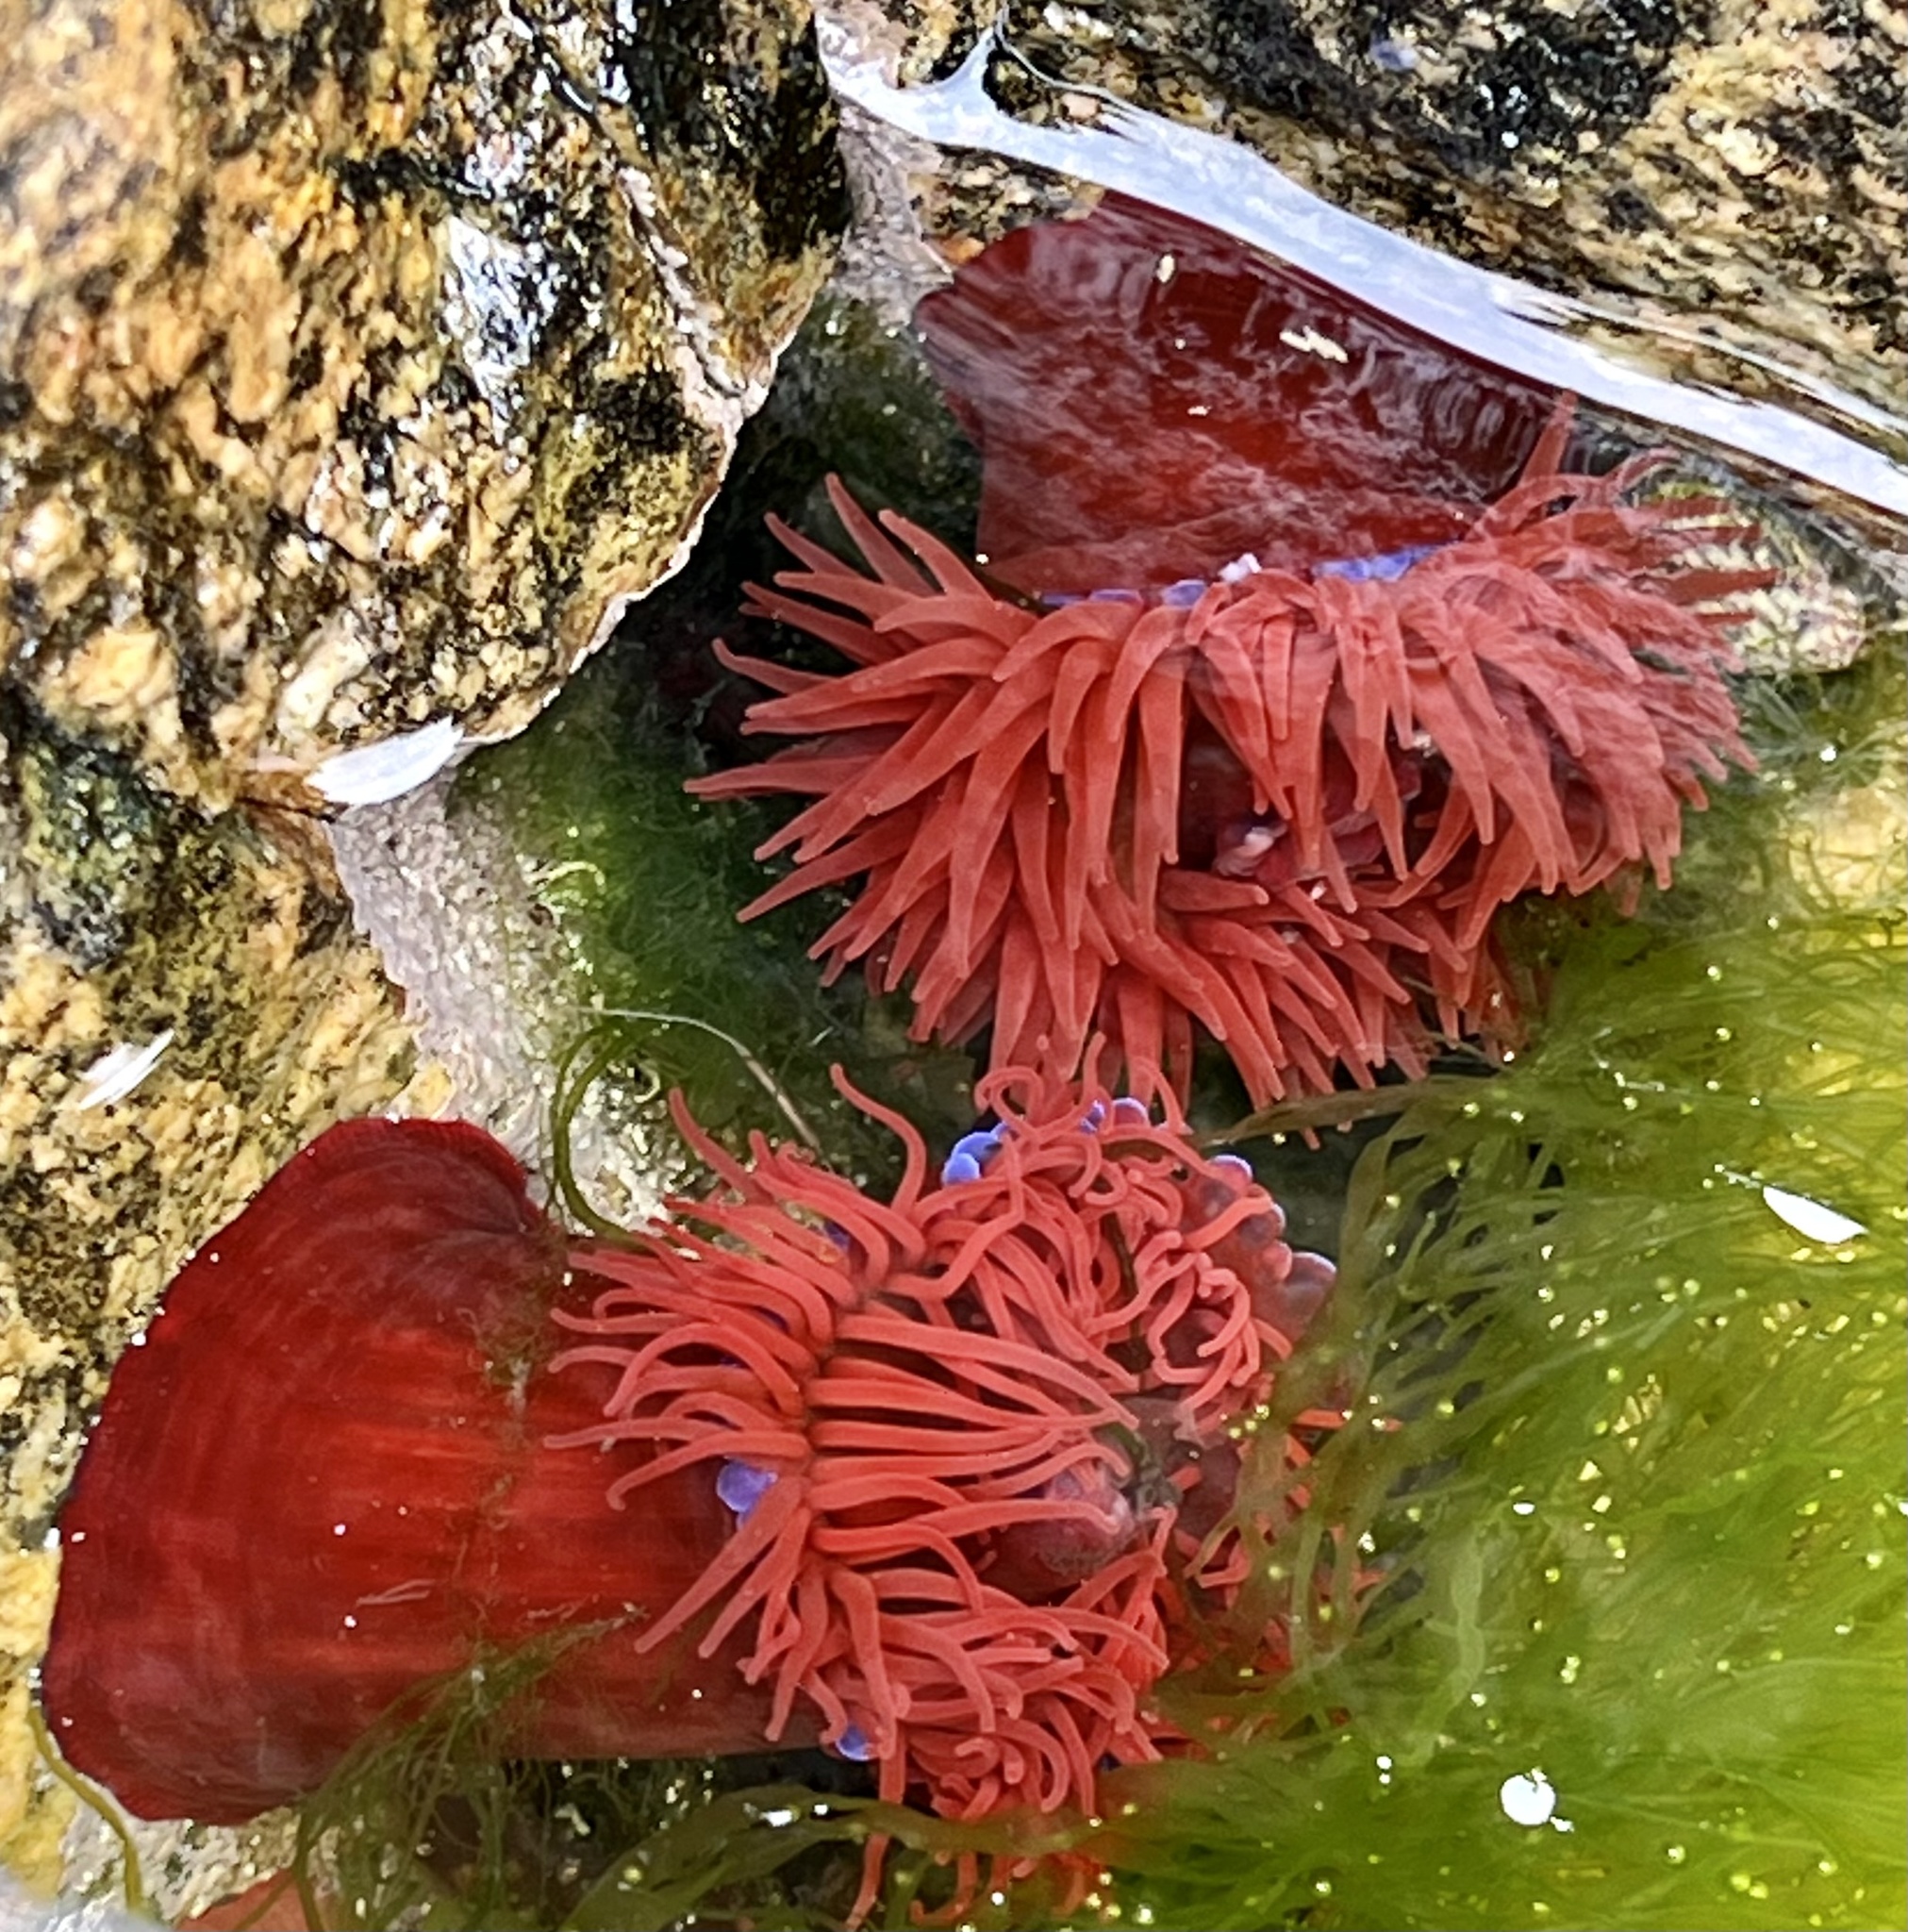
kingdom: Animalia
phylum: Cnidaria
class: Anthozoa
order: Actiniaria
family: Actiniidae
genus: Actinia
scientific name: Actinia equina
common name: Beadlet anemone
